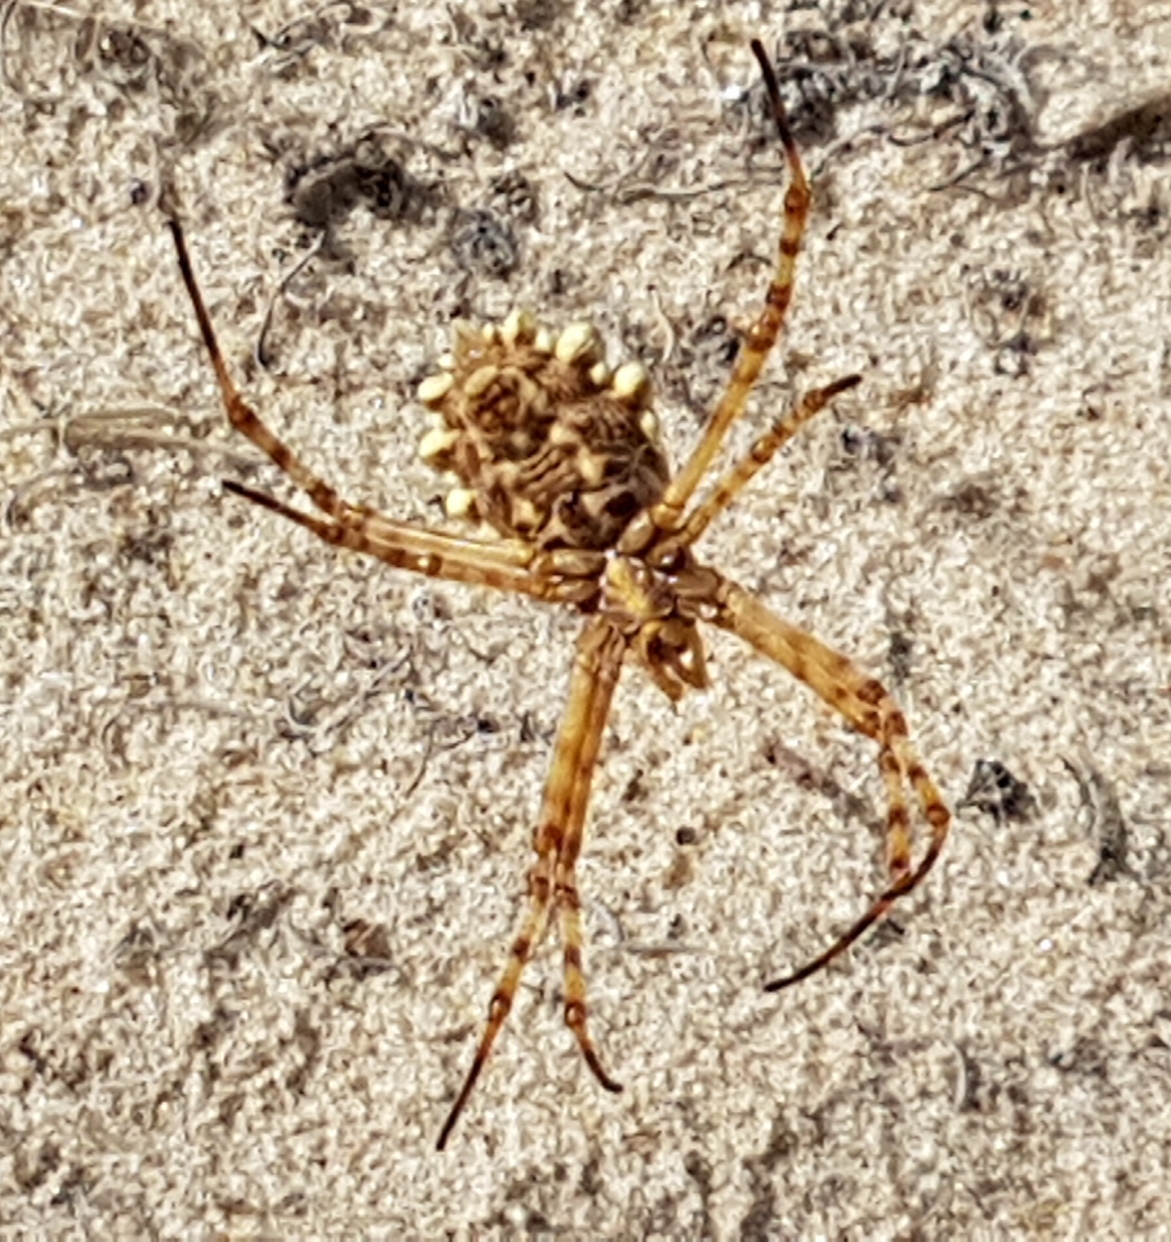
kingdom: Animalia
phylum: Arthropoda
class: Arachnida
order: Araneae
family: Araneidae
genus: Argiope
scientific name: Argiope lobata
